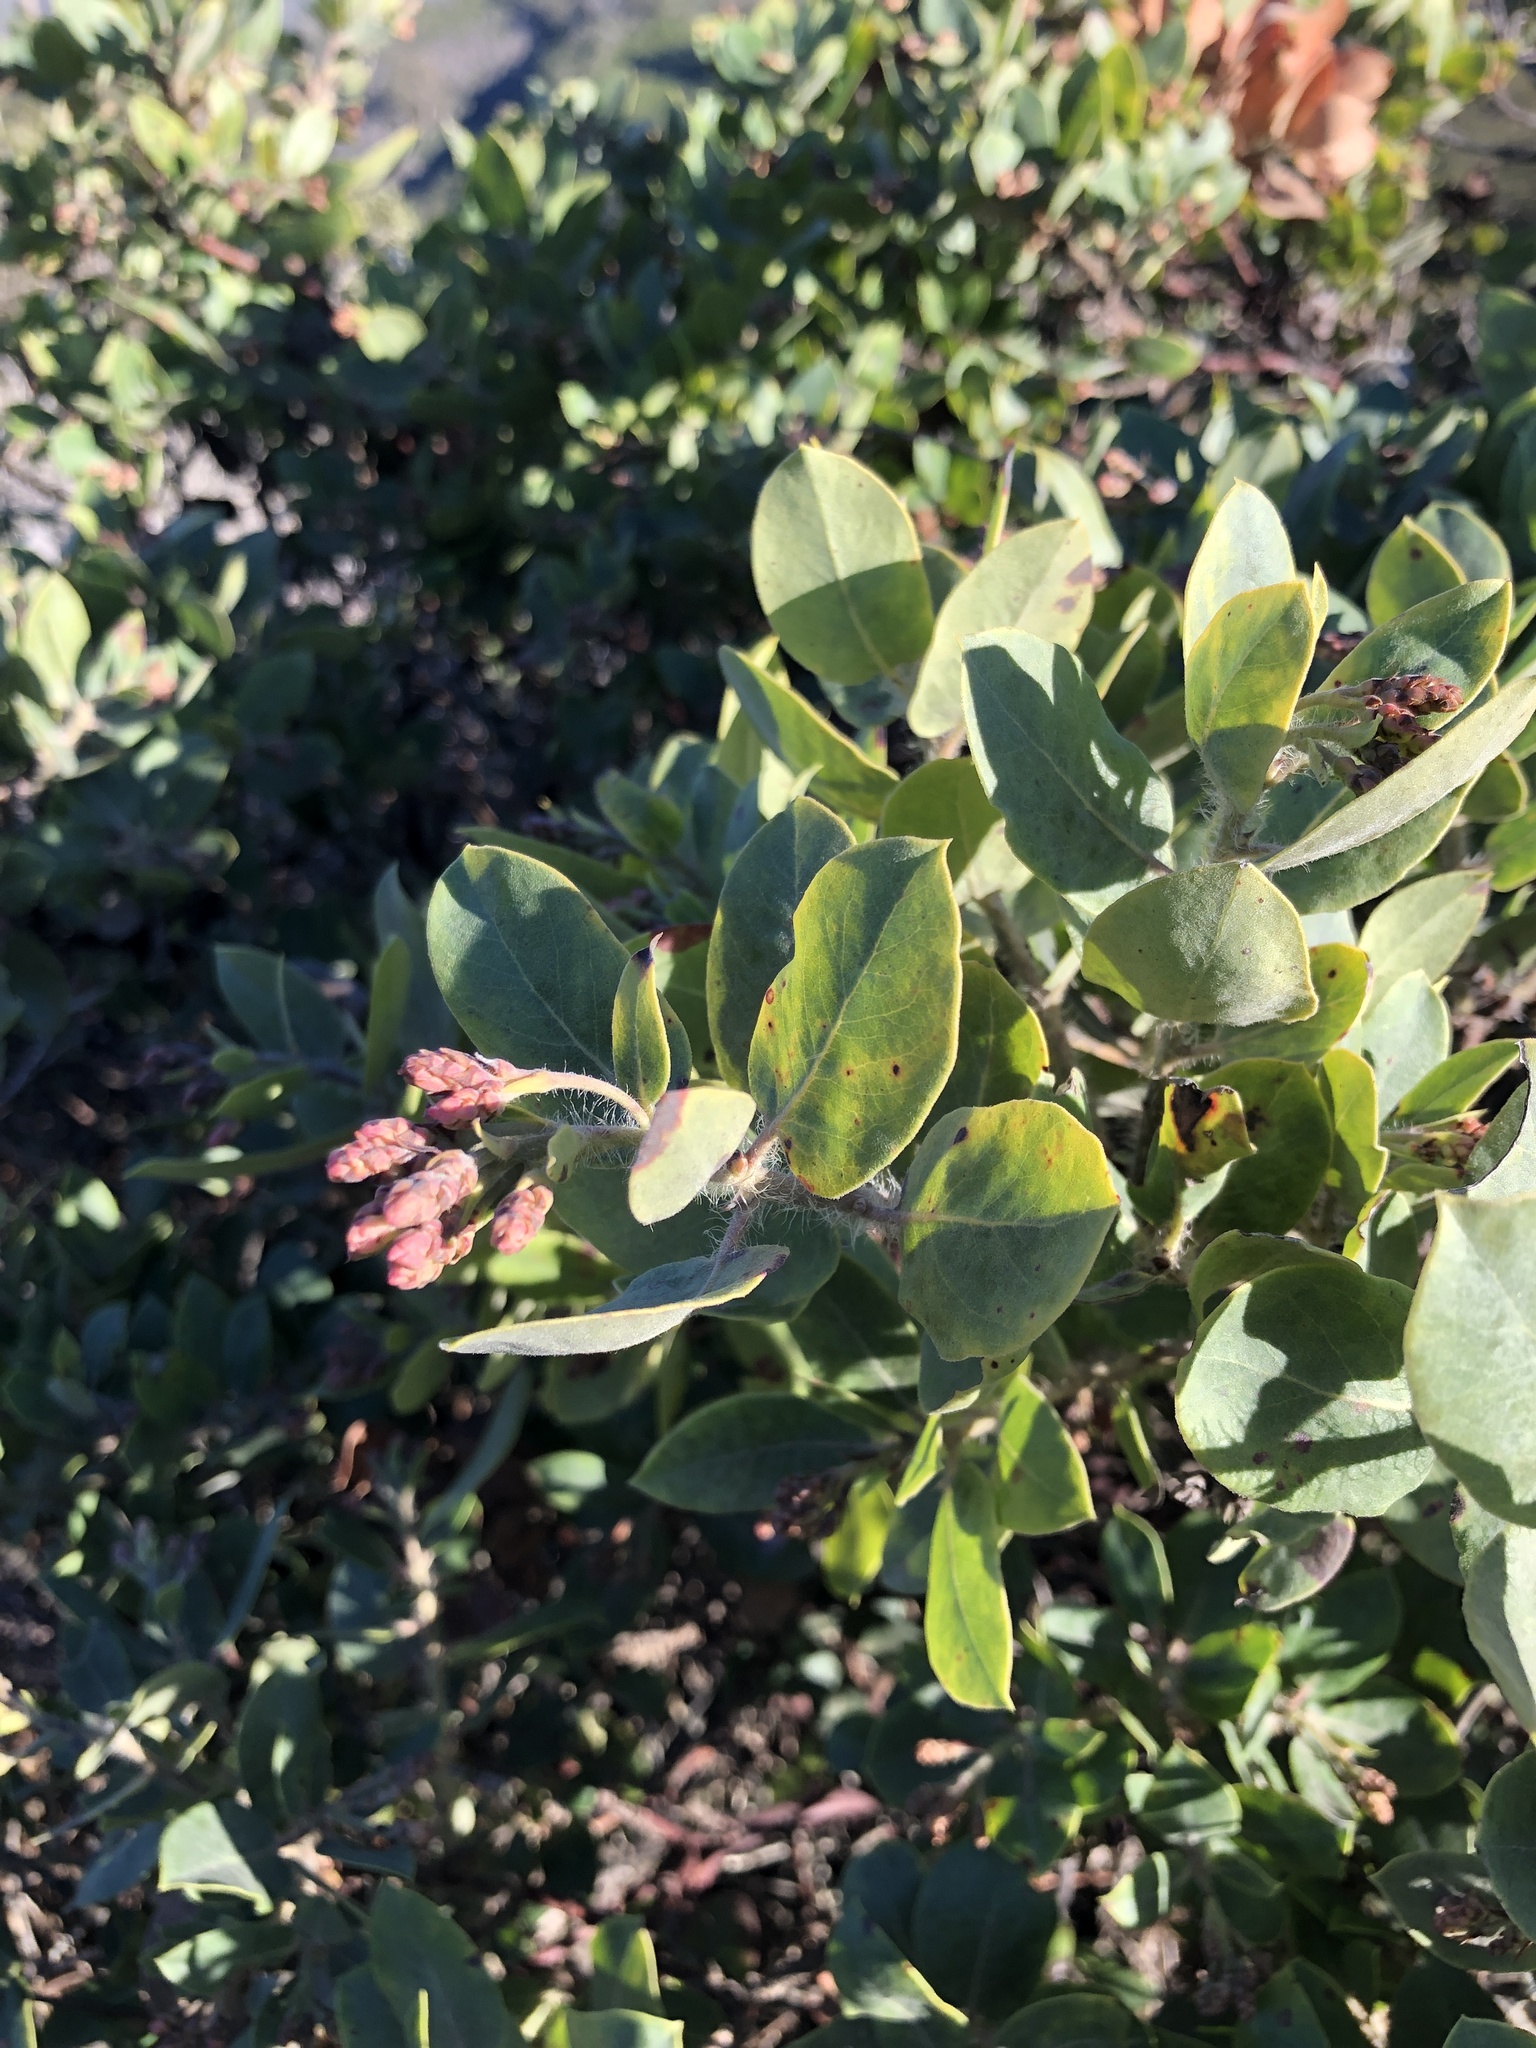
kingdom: Plantae
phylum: Tracheophyta
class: Magnoliopsida
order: Ericales
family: Ericaceae
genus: Arctostaphylos
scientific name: Arctostaphylos crustacea
